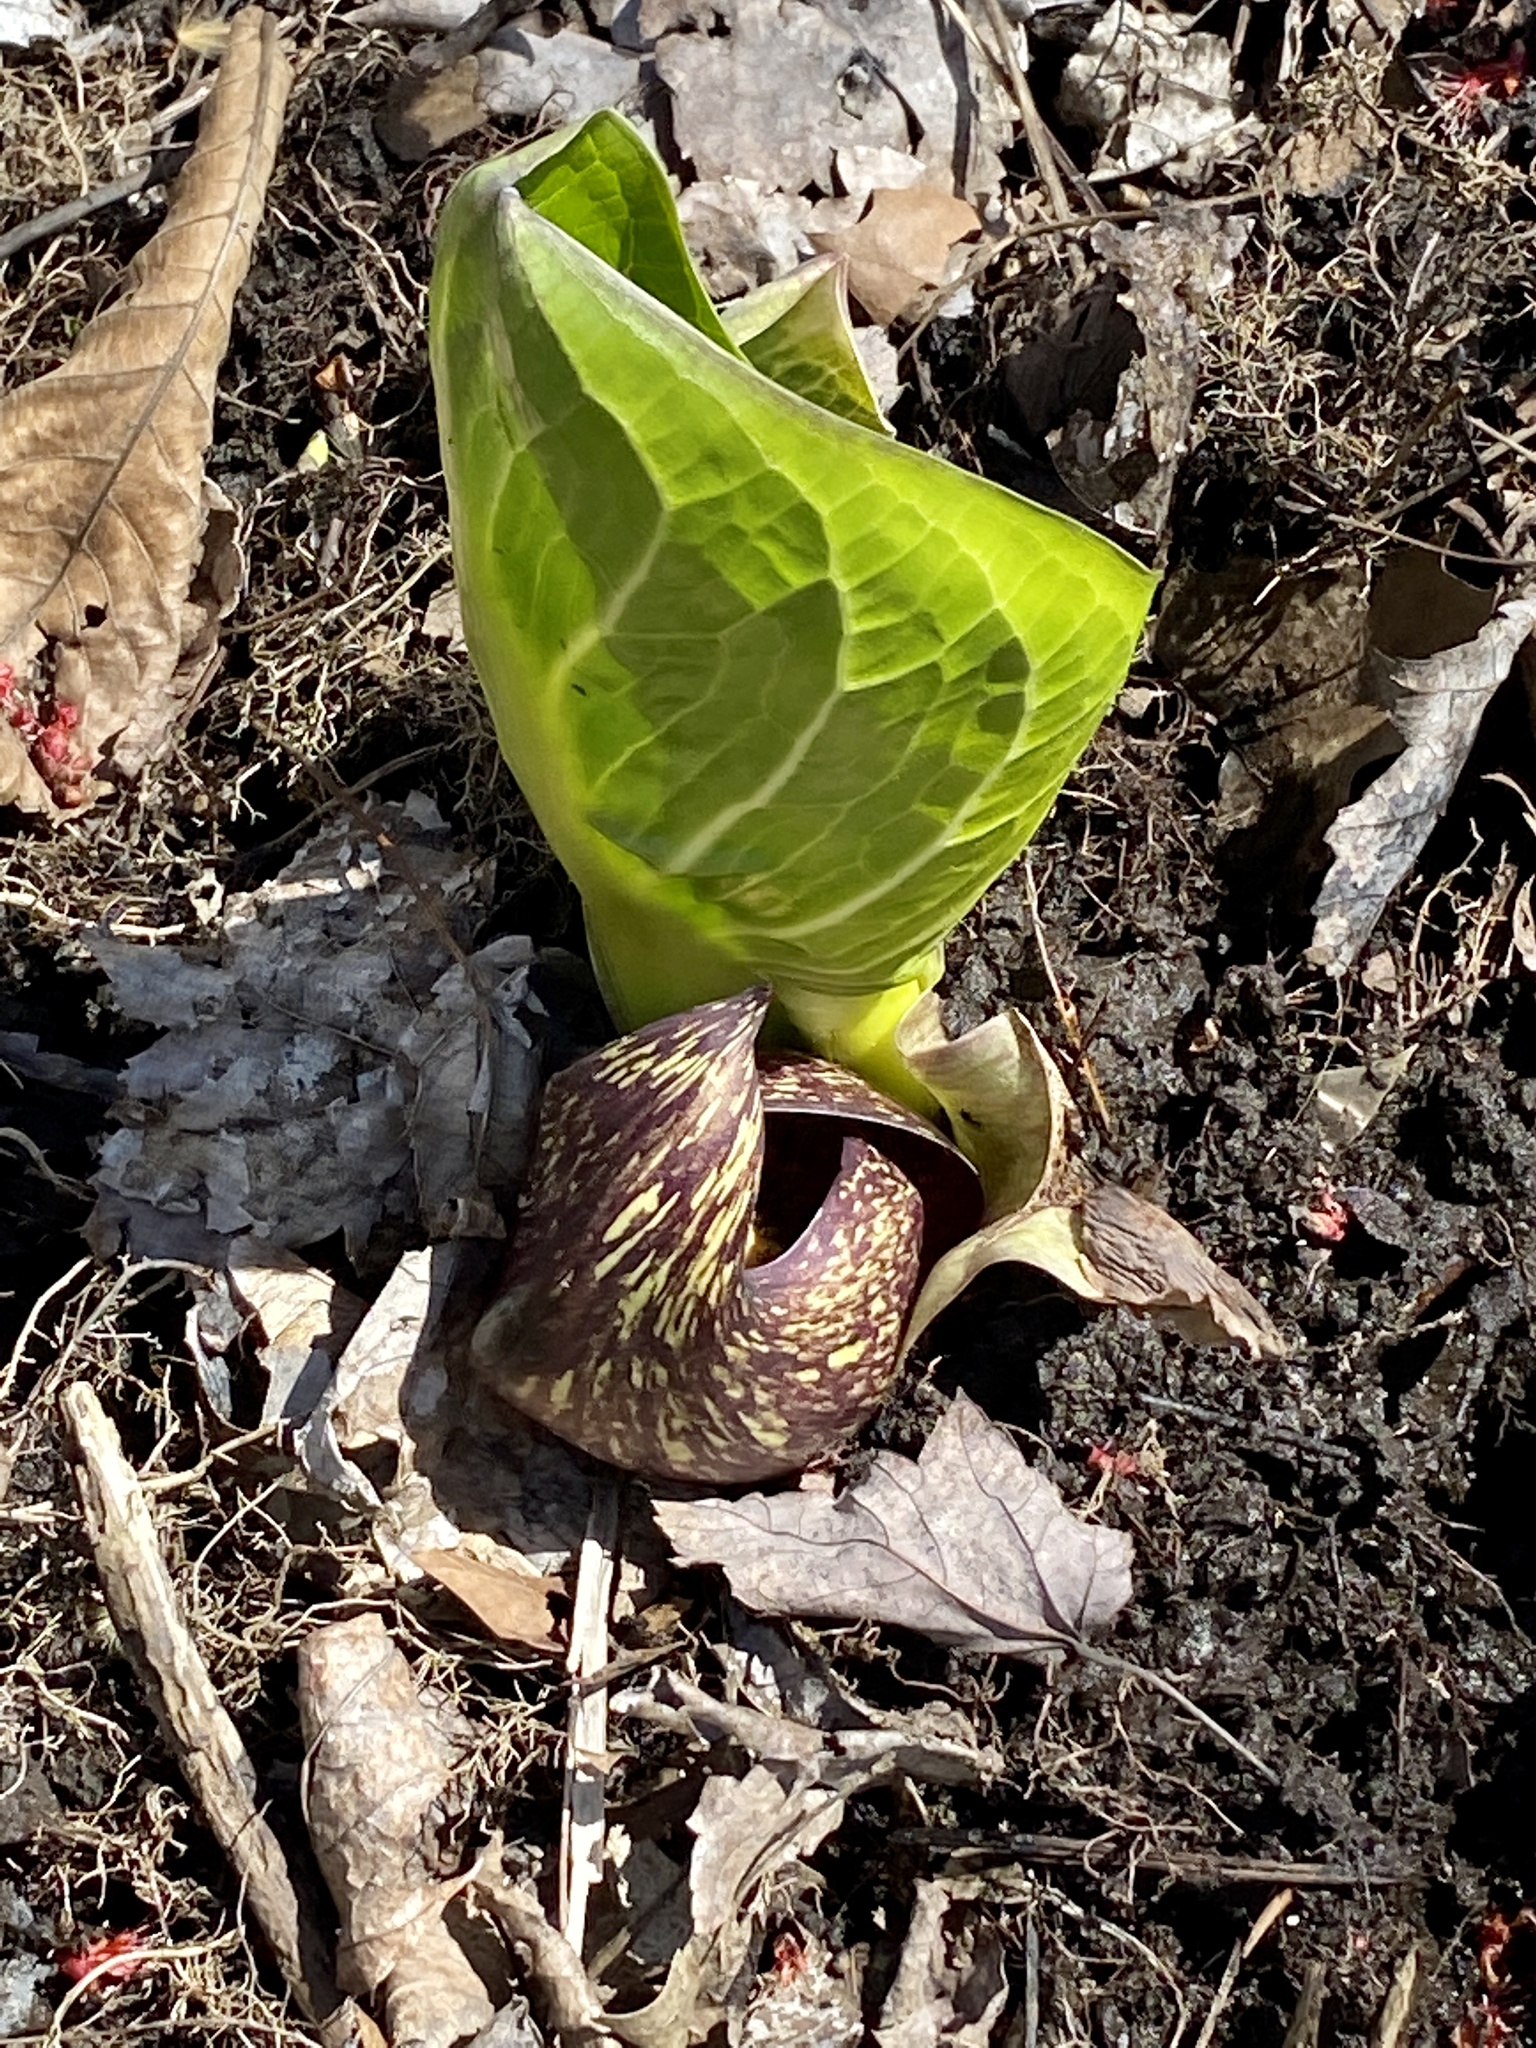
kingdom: Plantae
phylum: Tracheophyta
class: Liliopsida
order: Alismatales
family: Araceae
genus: Symplocarpus
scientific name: Symplocarpus foetidus
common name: Eastern skunk cabbage
